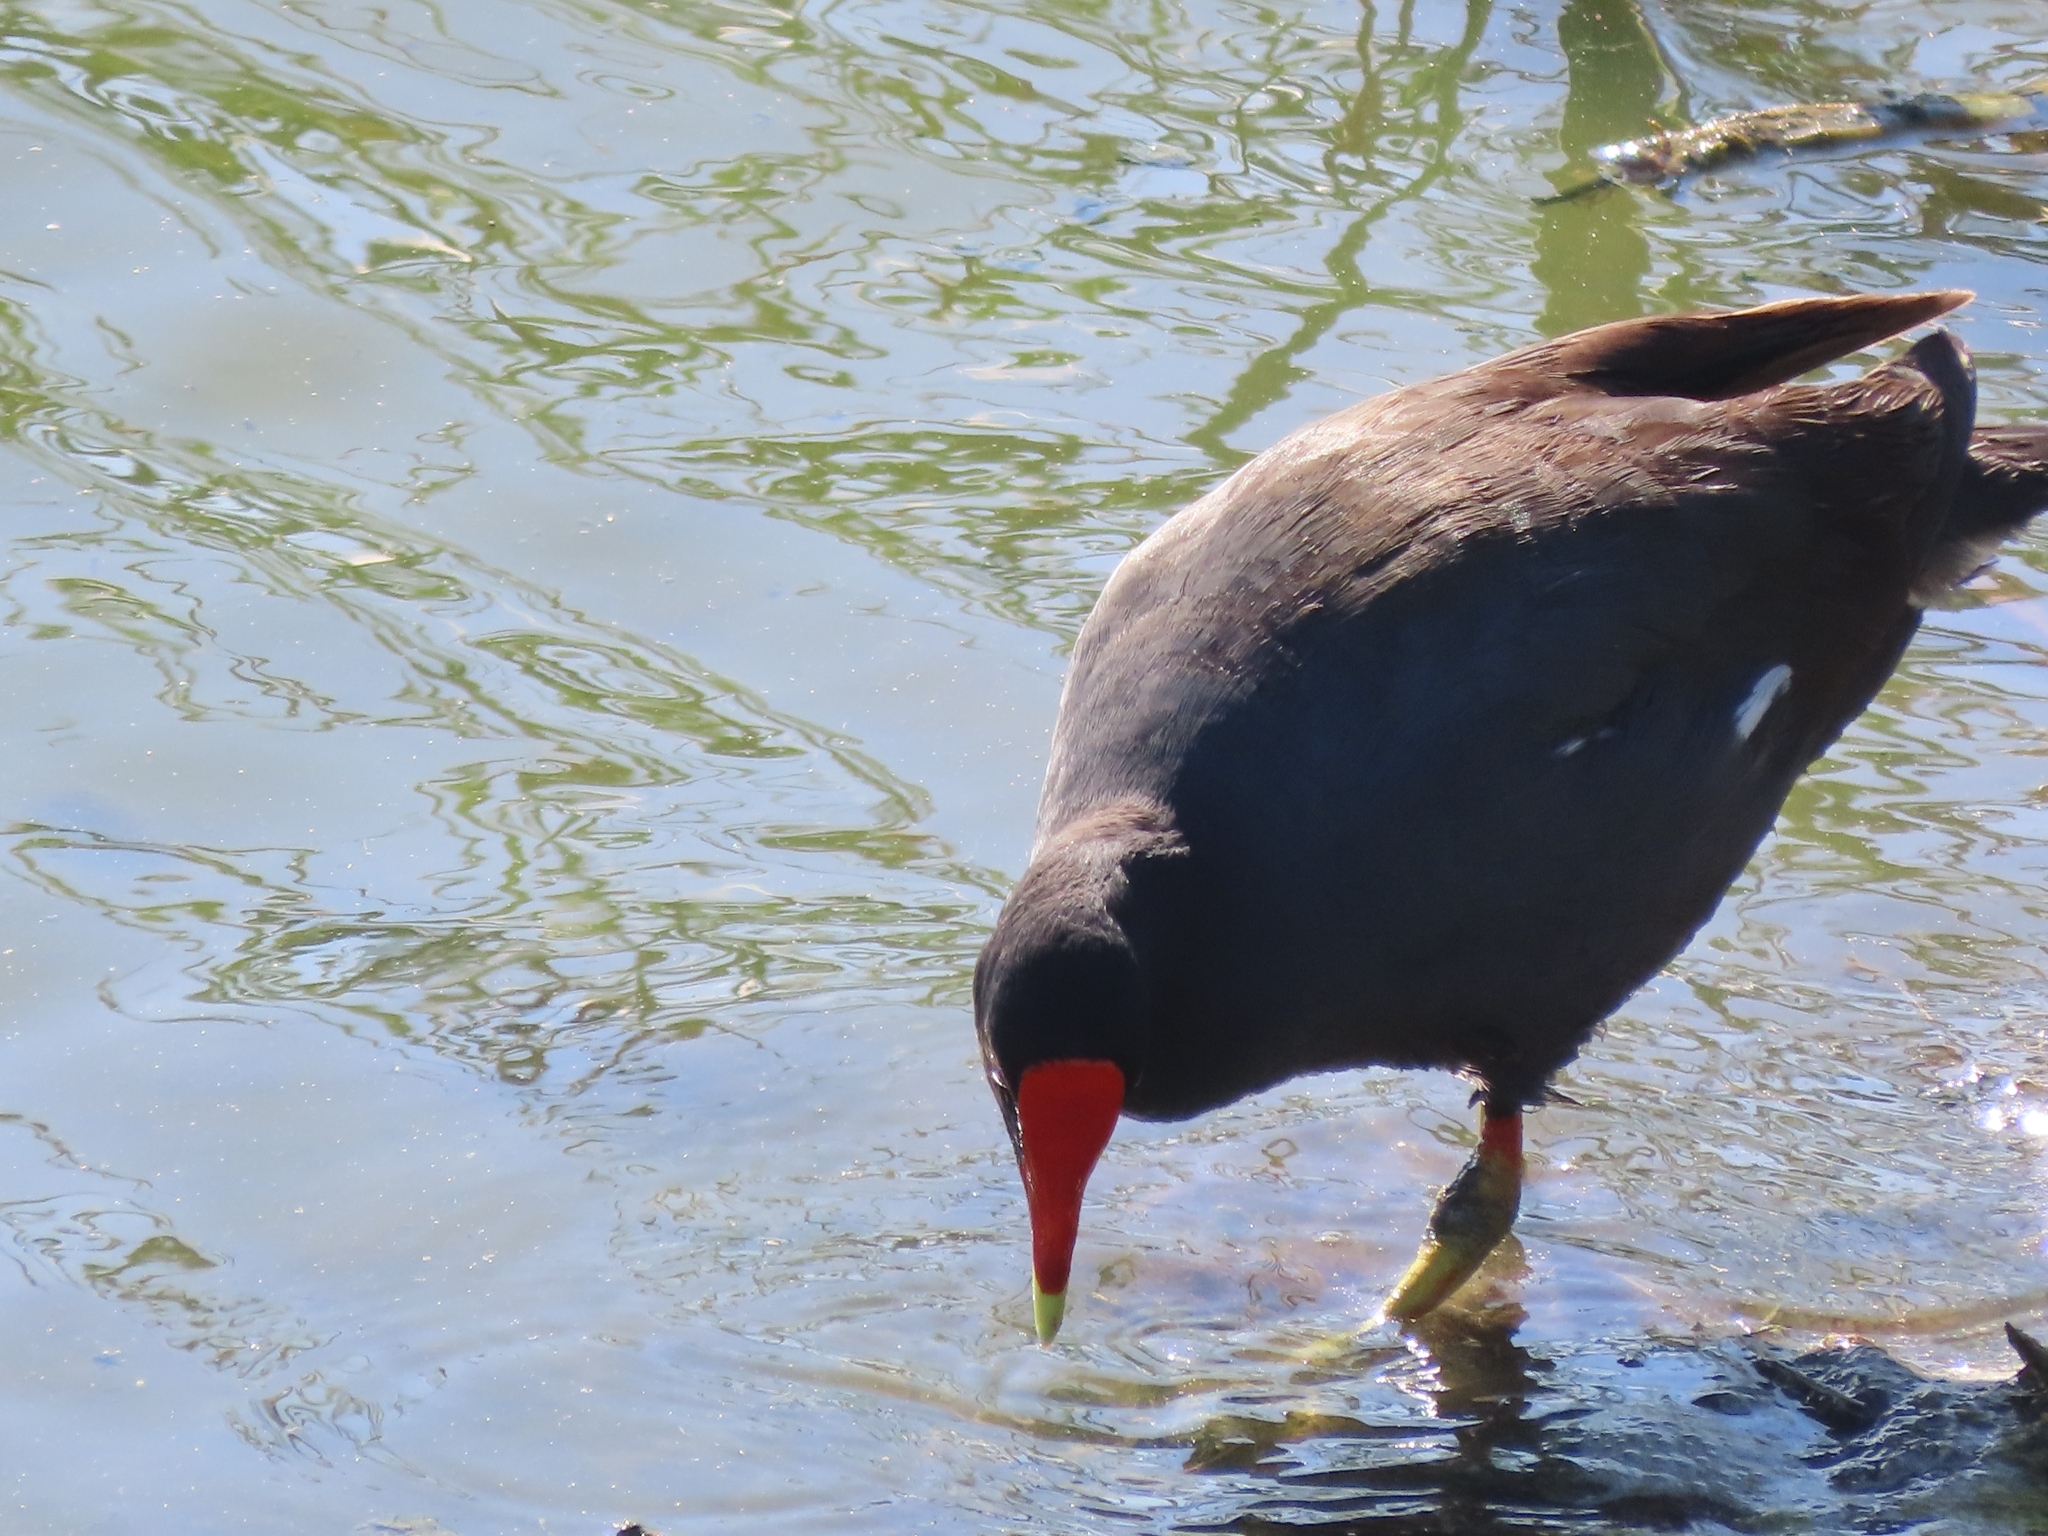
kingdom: Animalia
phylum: Chordata
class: Aves
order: Gruiformes
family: Rallidae
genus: Gallinula
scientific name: Gallinula chloropus
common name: Common moorhen
